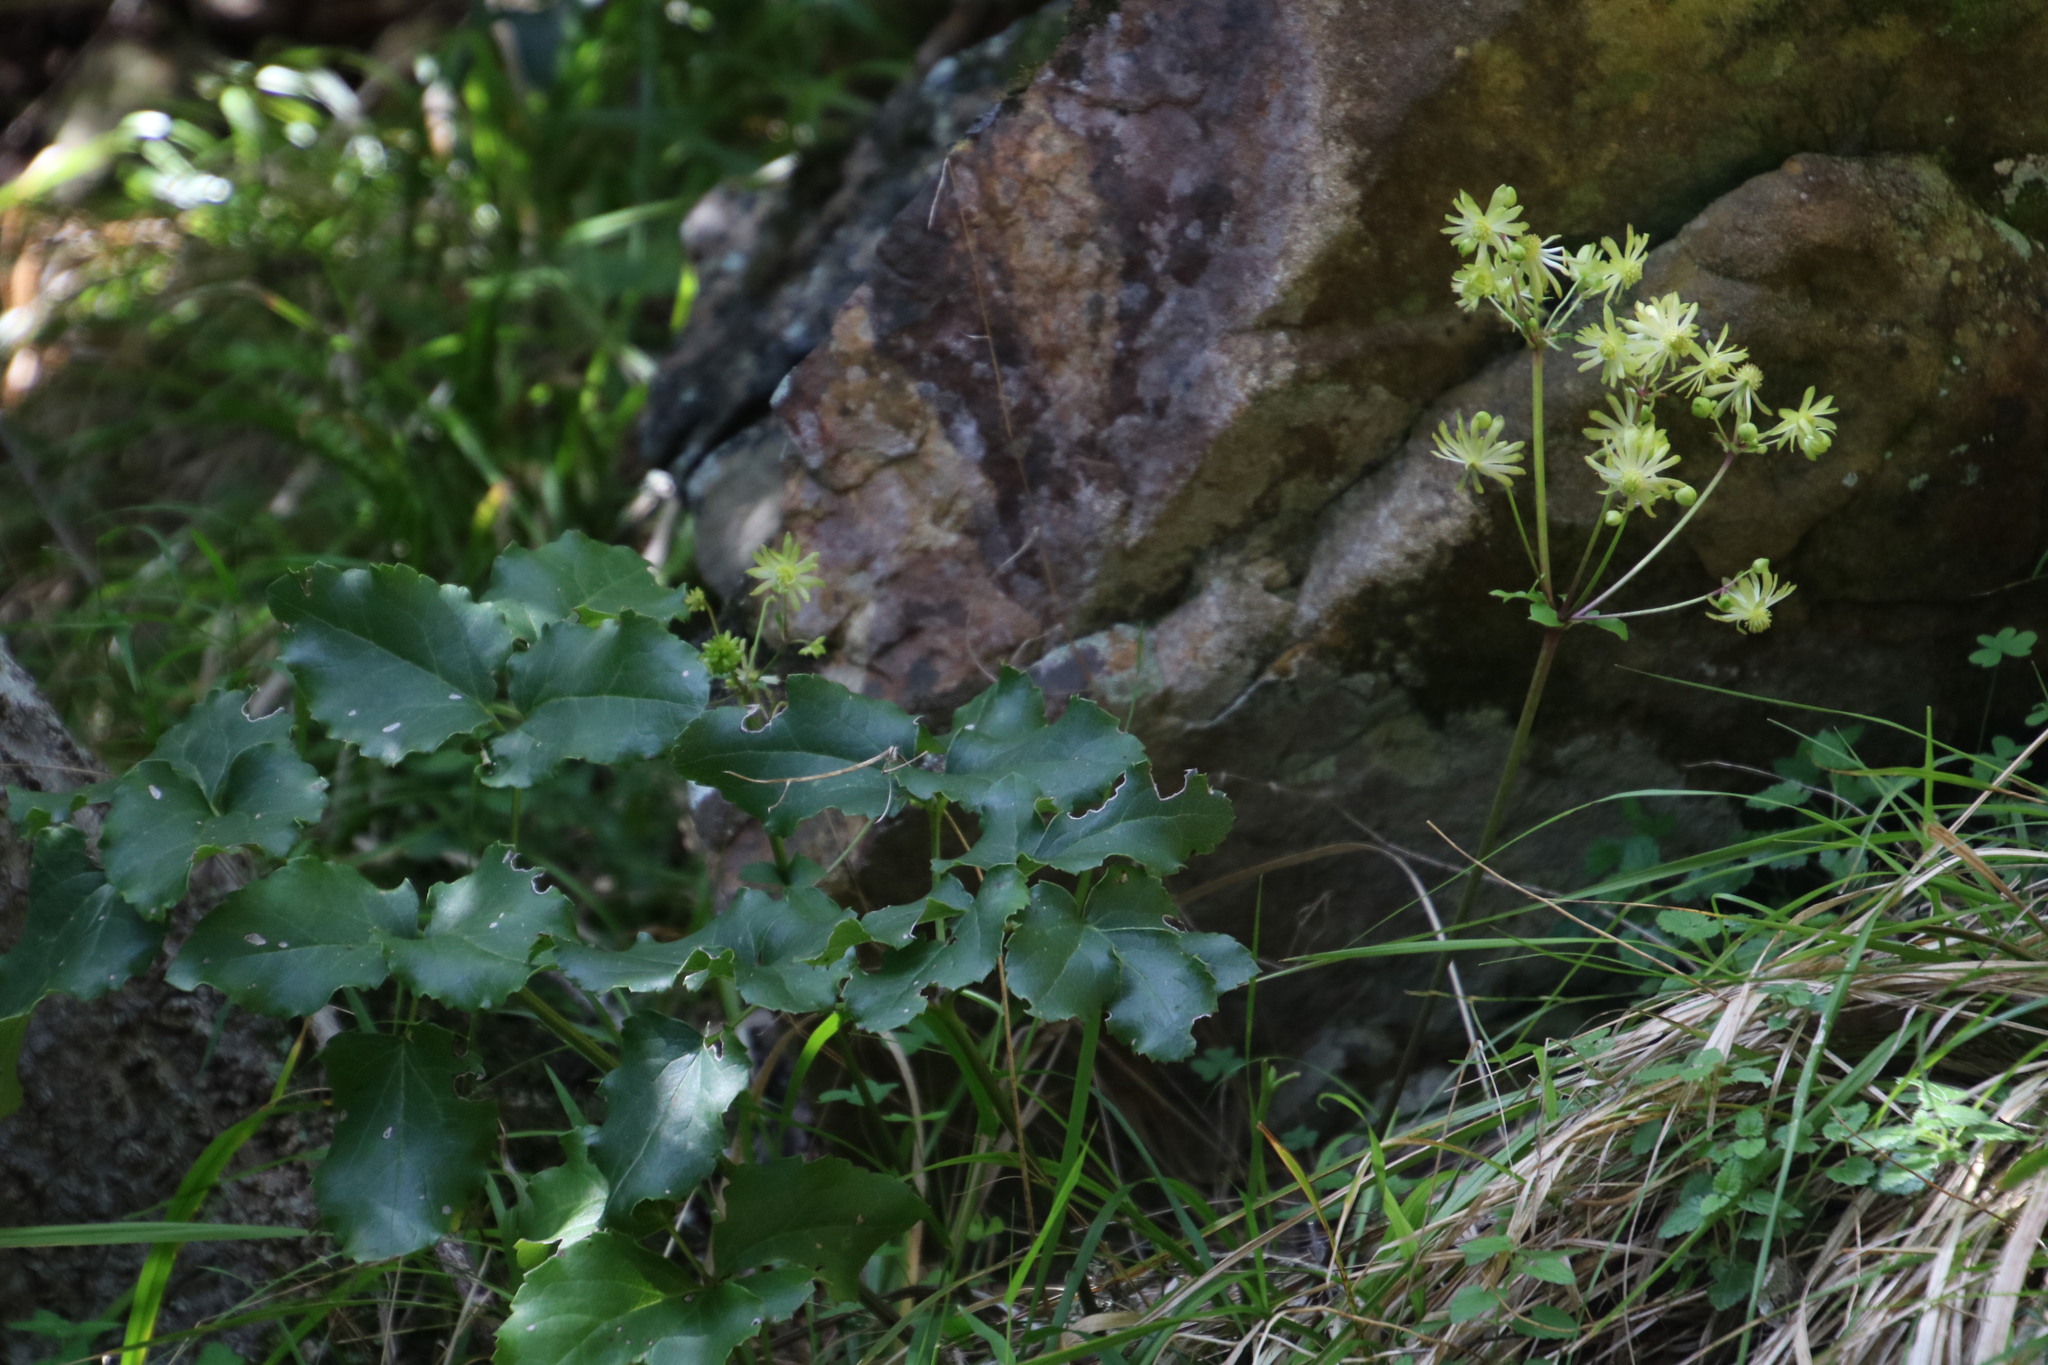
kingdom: Plantae
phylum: Tracheophyta
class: Magnoliopsida
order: Ranunculales
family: Ranunculaceae
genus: Knowltonia
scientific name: Knowltonia vesicatoria
